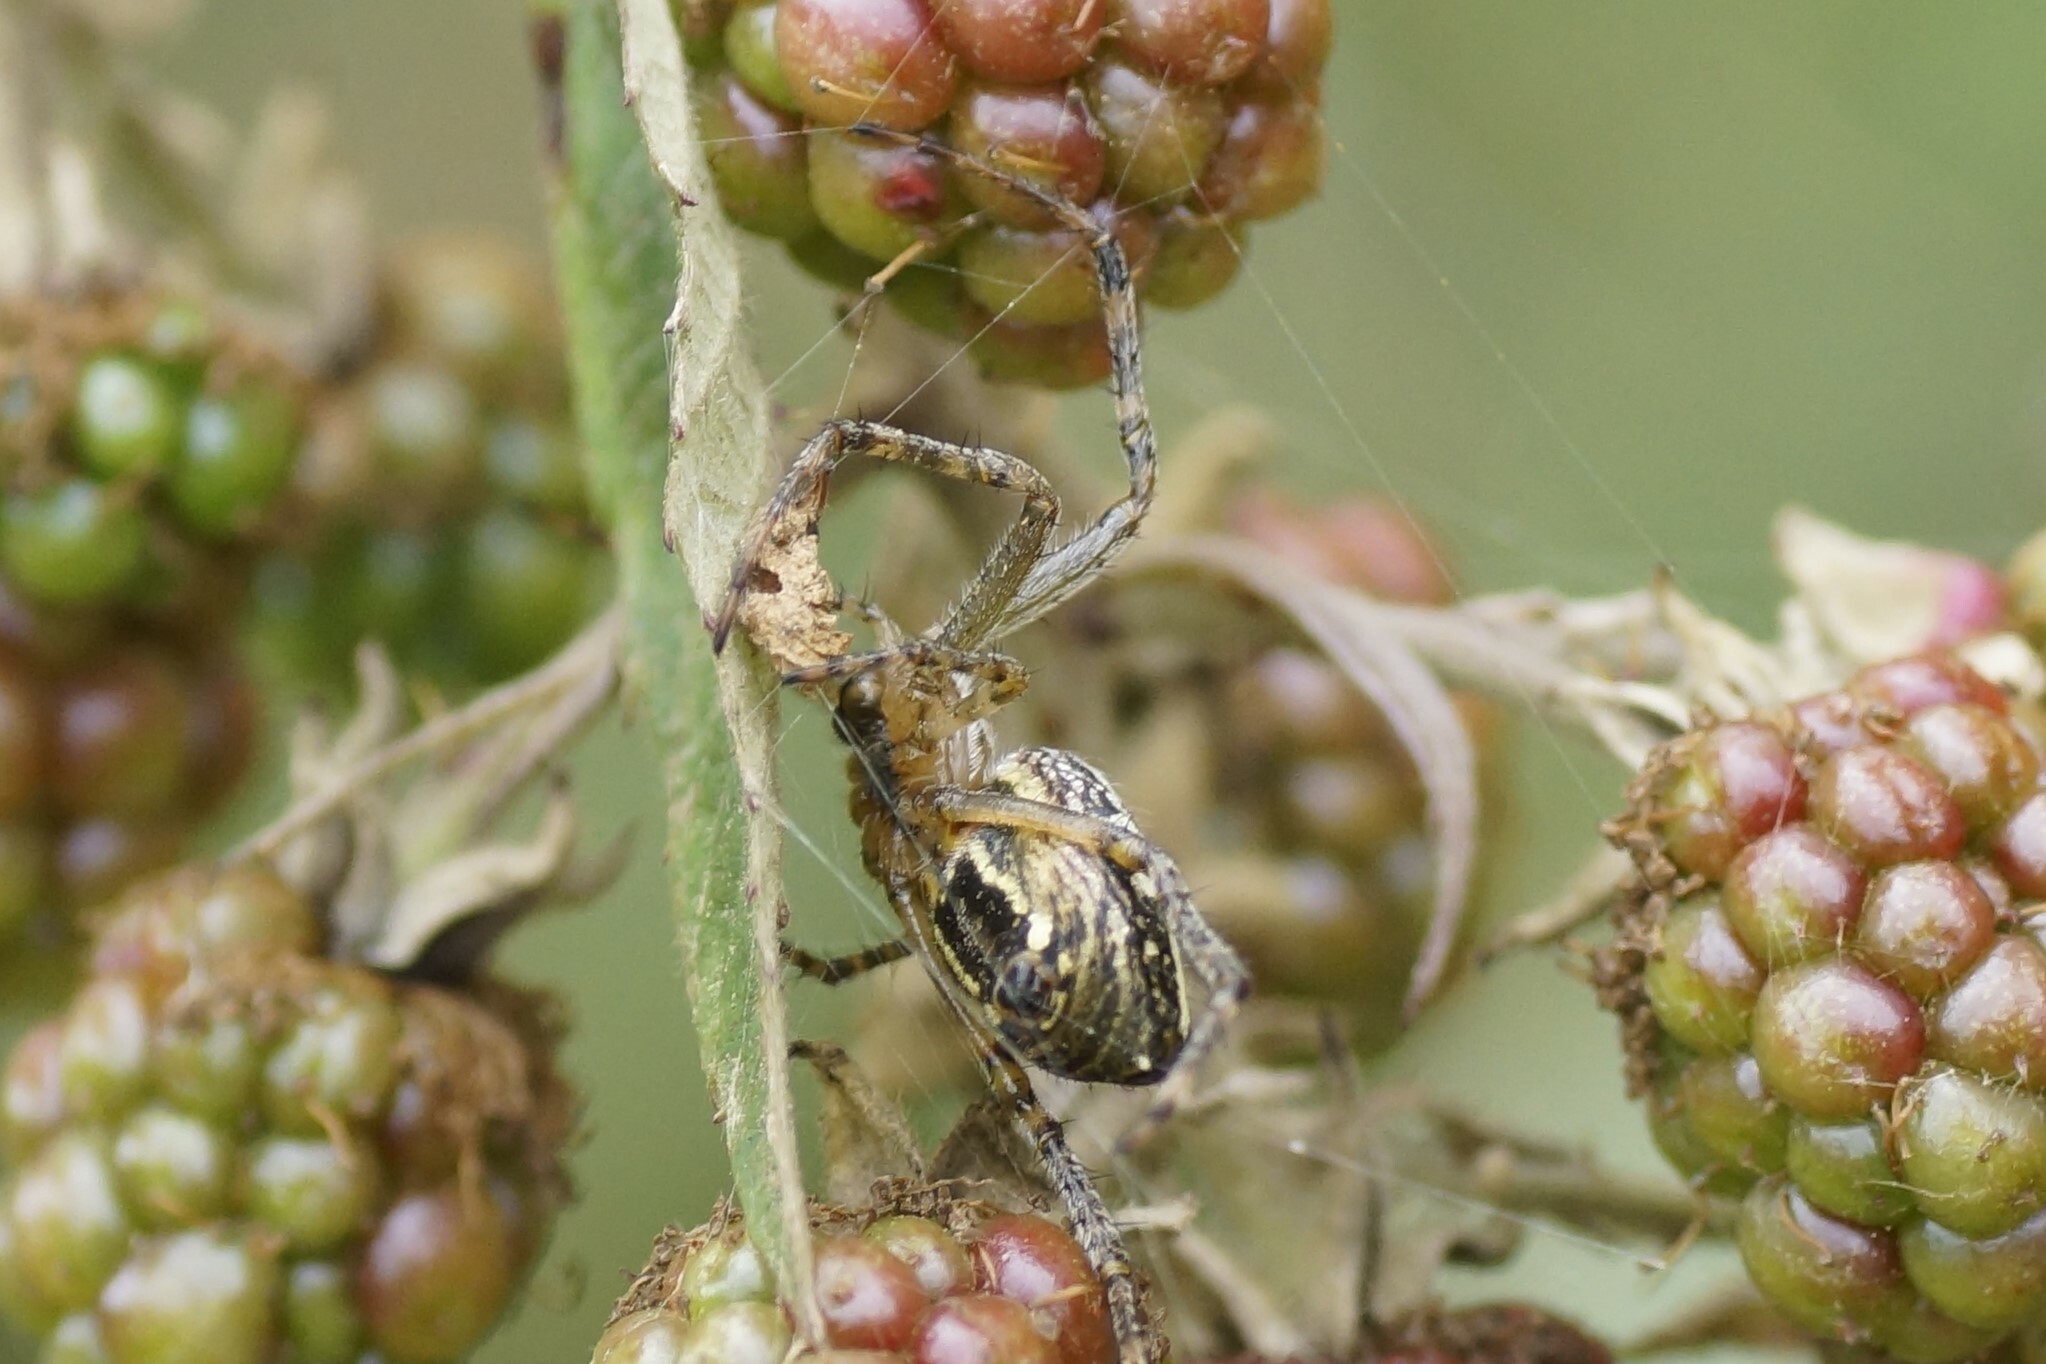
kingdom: Animalia
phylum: Arthropoda
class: Arachnida
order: Araneae
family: Araneidae
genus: Plebs
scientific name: Plebs bradleyi
